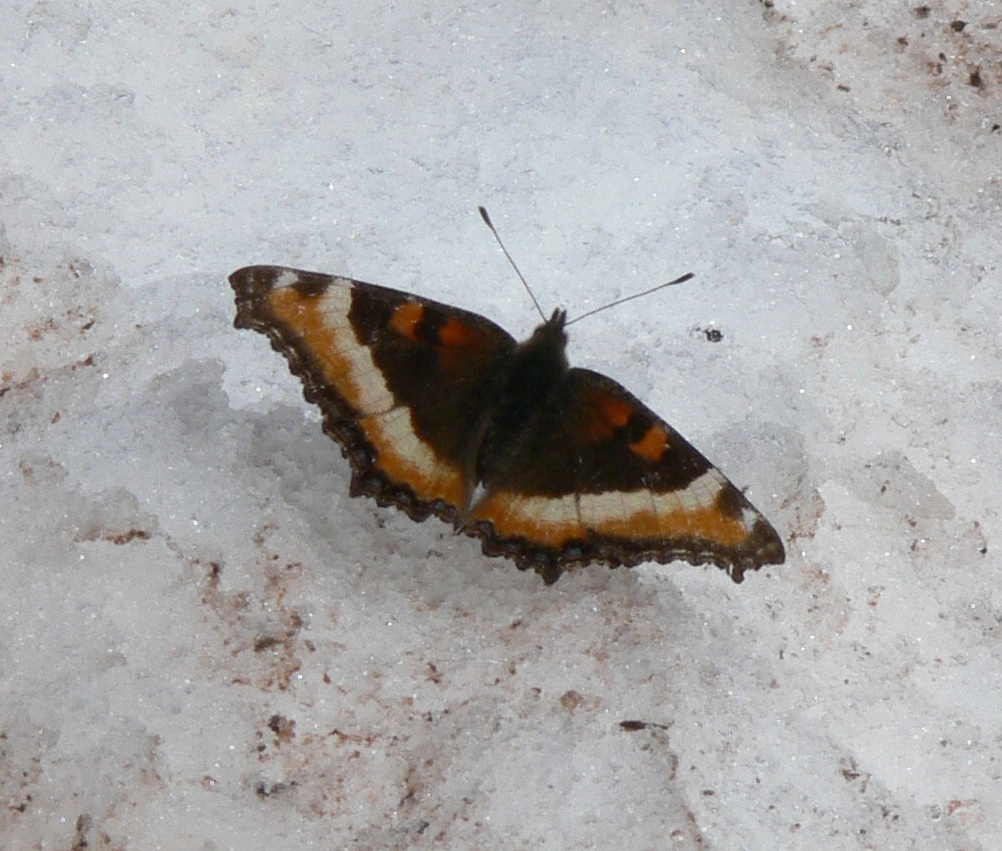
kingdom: Animalia
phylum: Arthropoda
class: Insecta
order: Lepidoptera
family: Nymphalidae
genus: Aglais
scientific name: Aglais milberti
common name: Milbert's tortoiseshell
